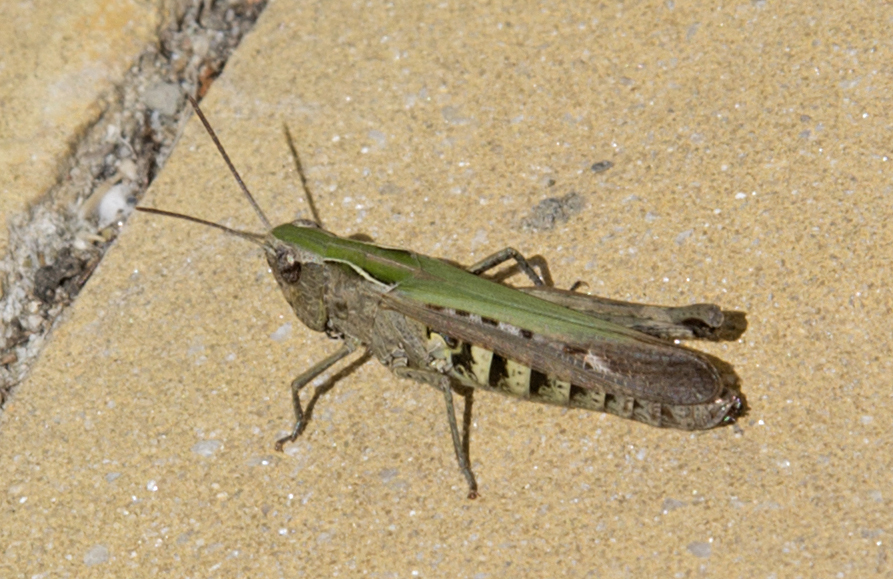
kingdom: Animalia
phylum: Arthropoda
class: Insecta
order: Orthoptera
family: Acrididae
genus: Omocestus
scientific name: Omocestus rufipes
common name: Woodland grasshopper
